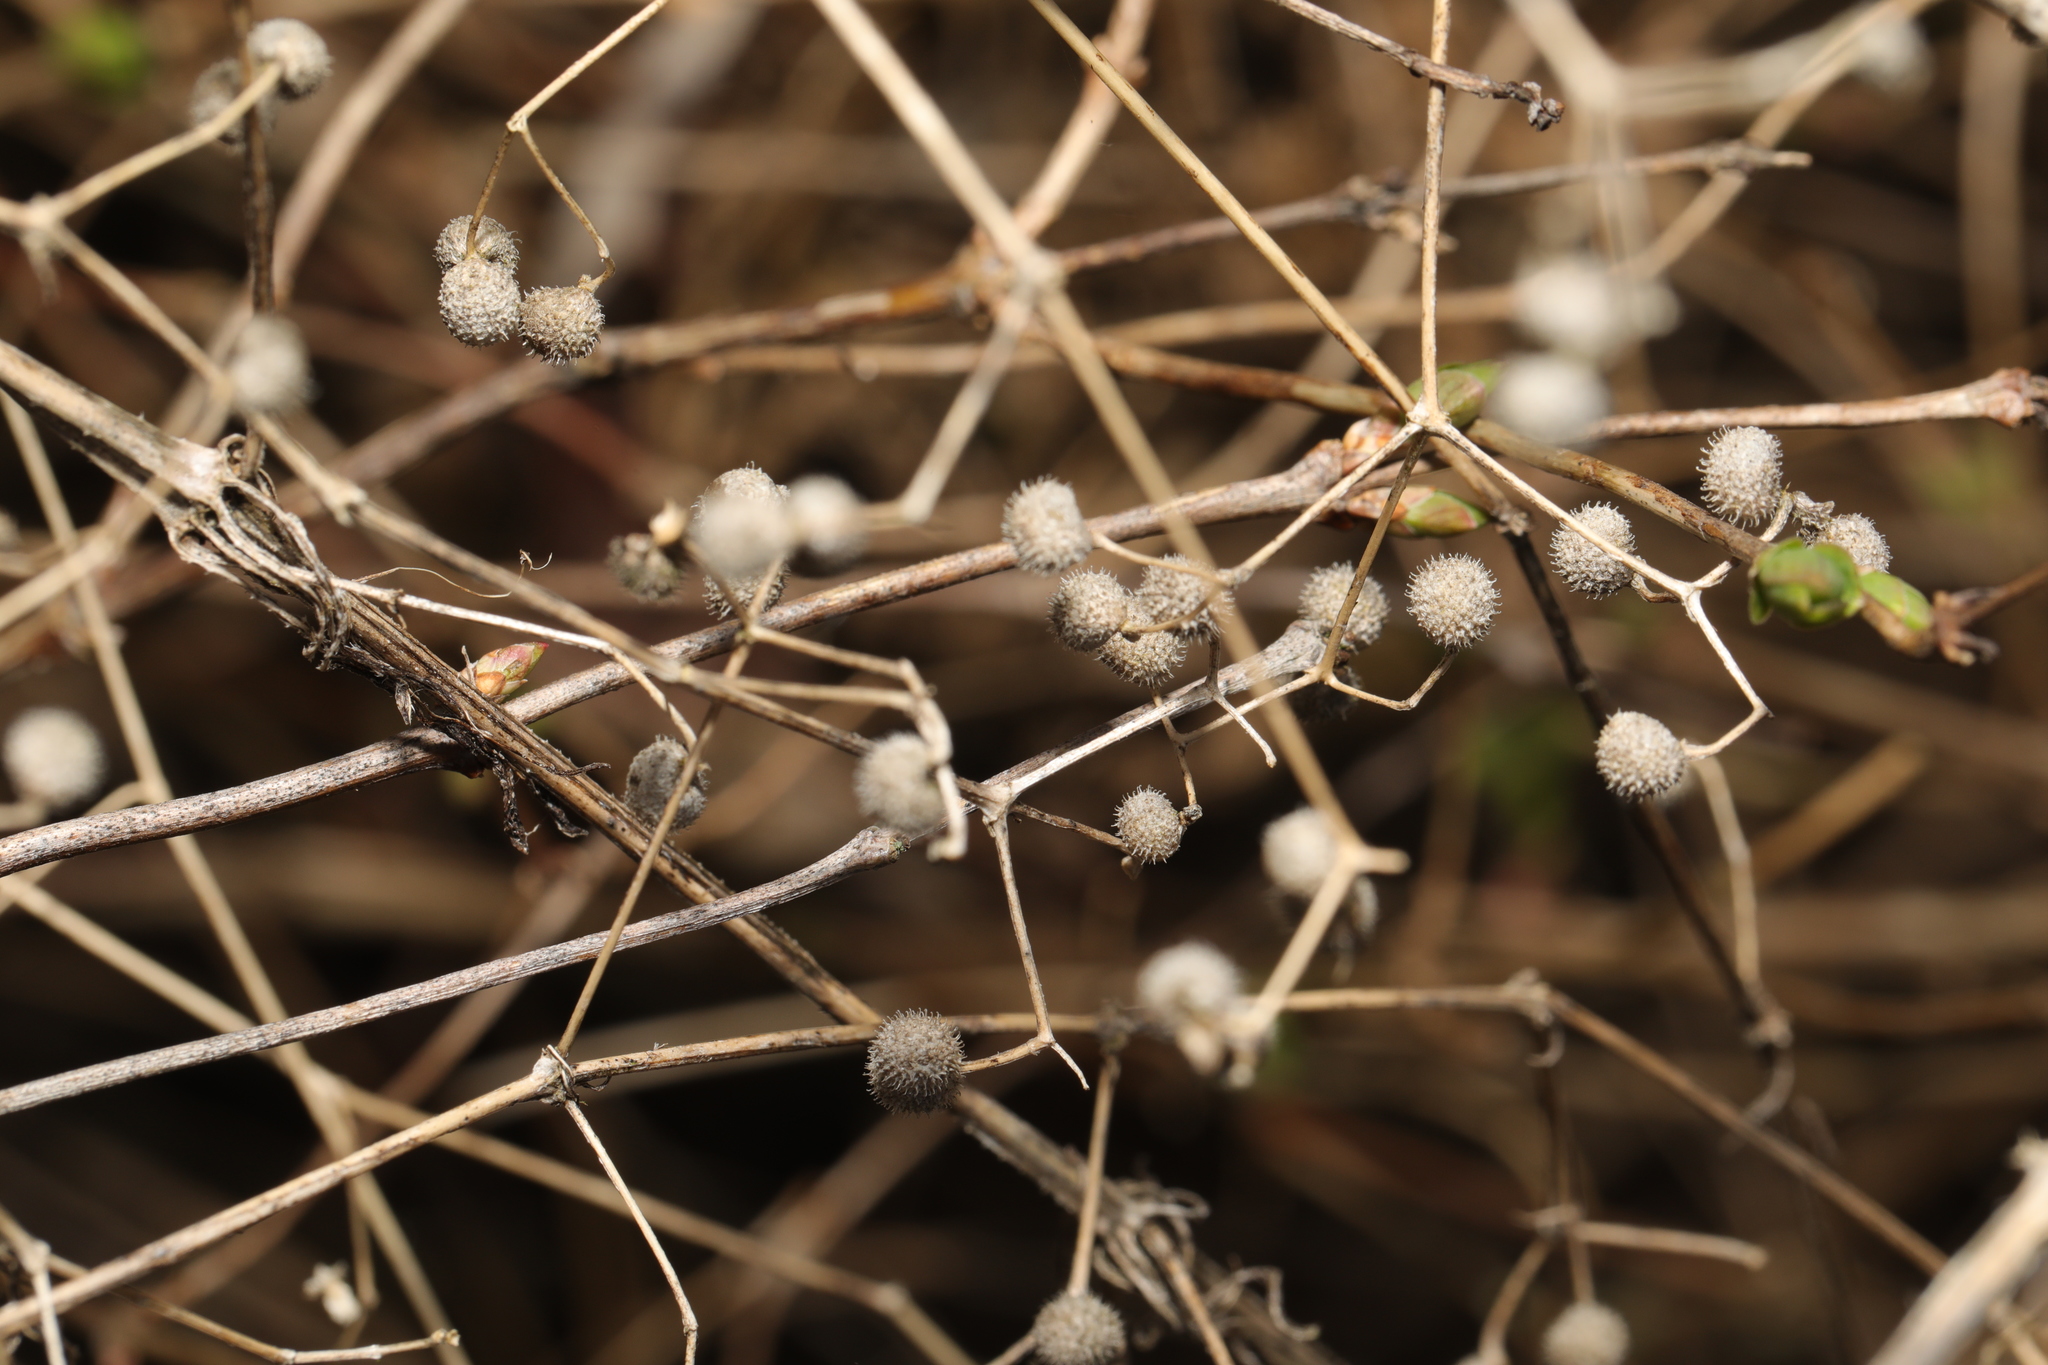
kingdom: Plantae
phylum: Tracheophyta
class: Magnoliopsida
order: Gentianales
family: Rubiaceae
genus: Galium
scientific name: Galium aparine
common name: Cleavers
